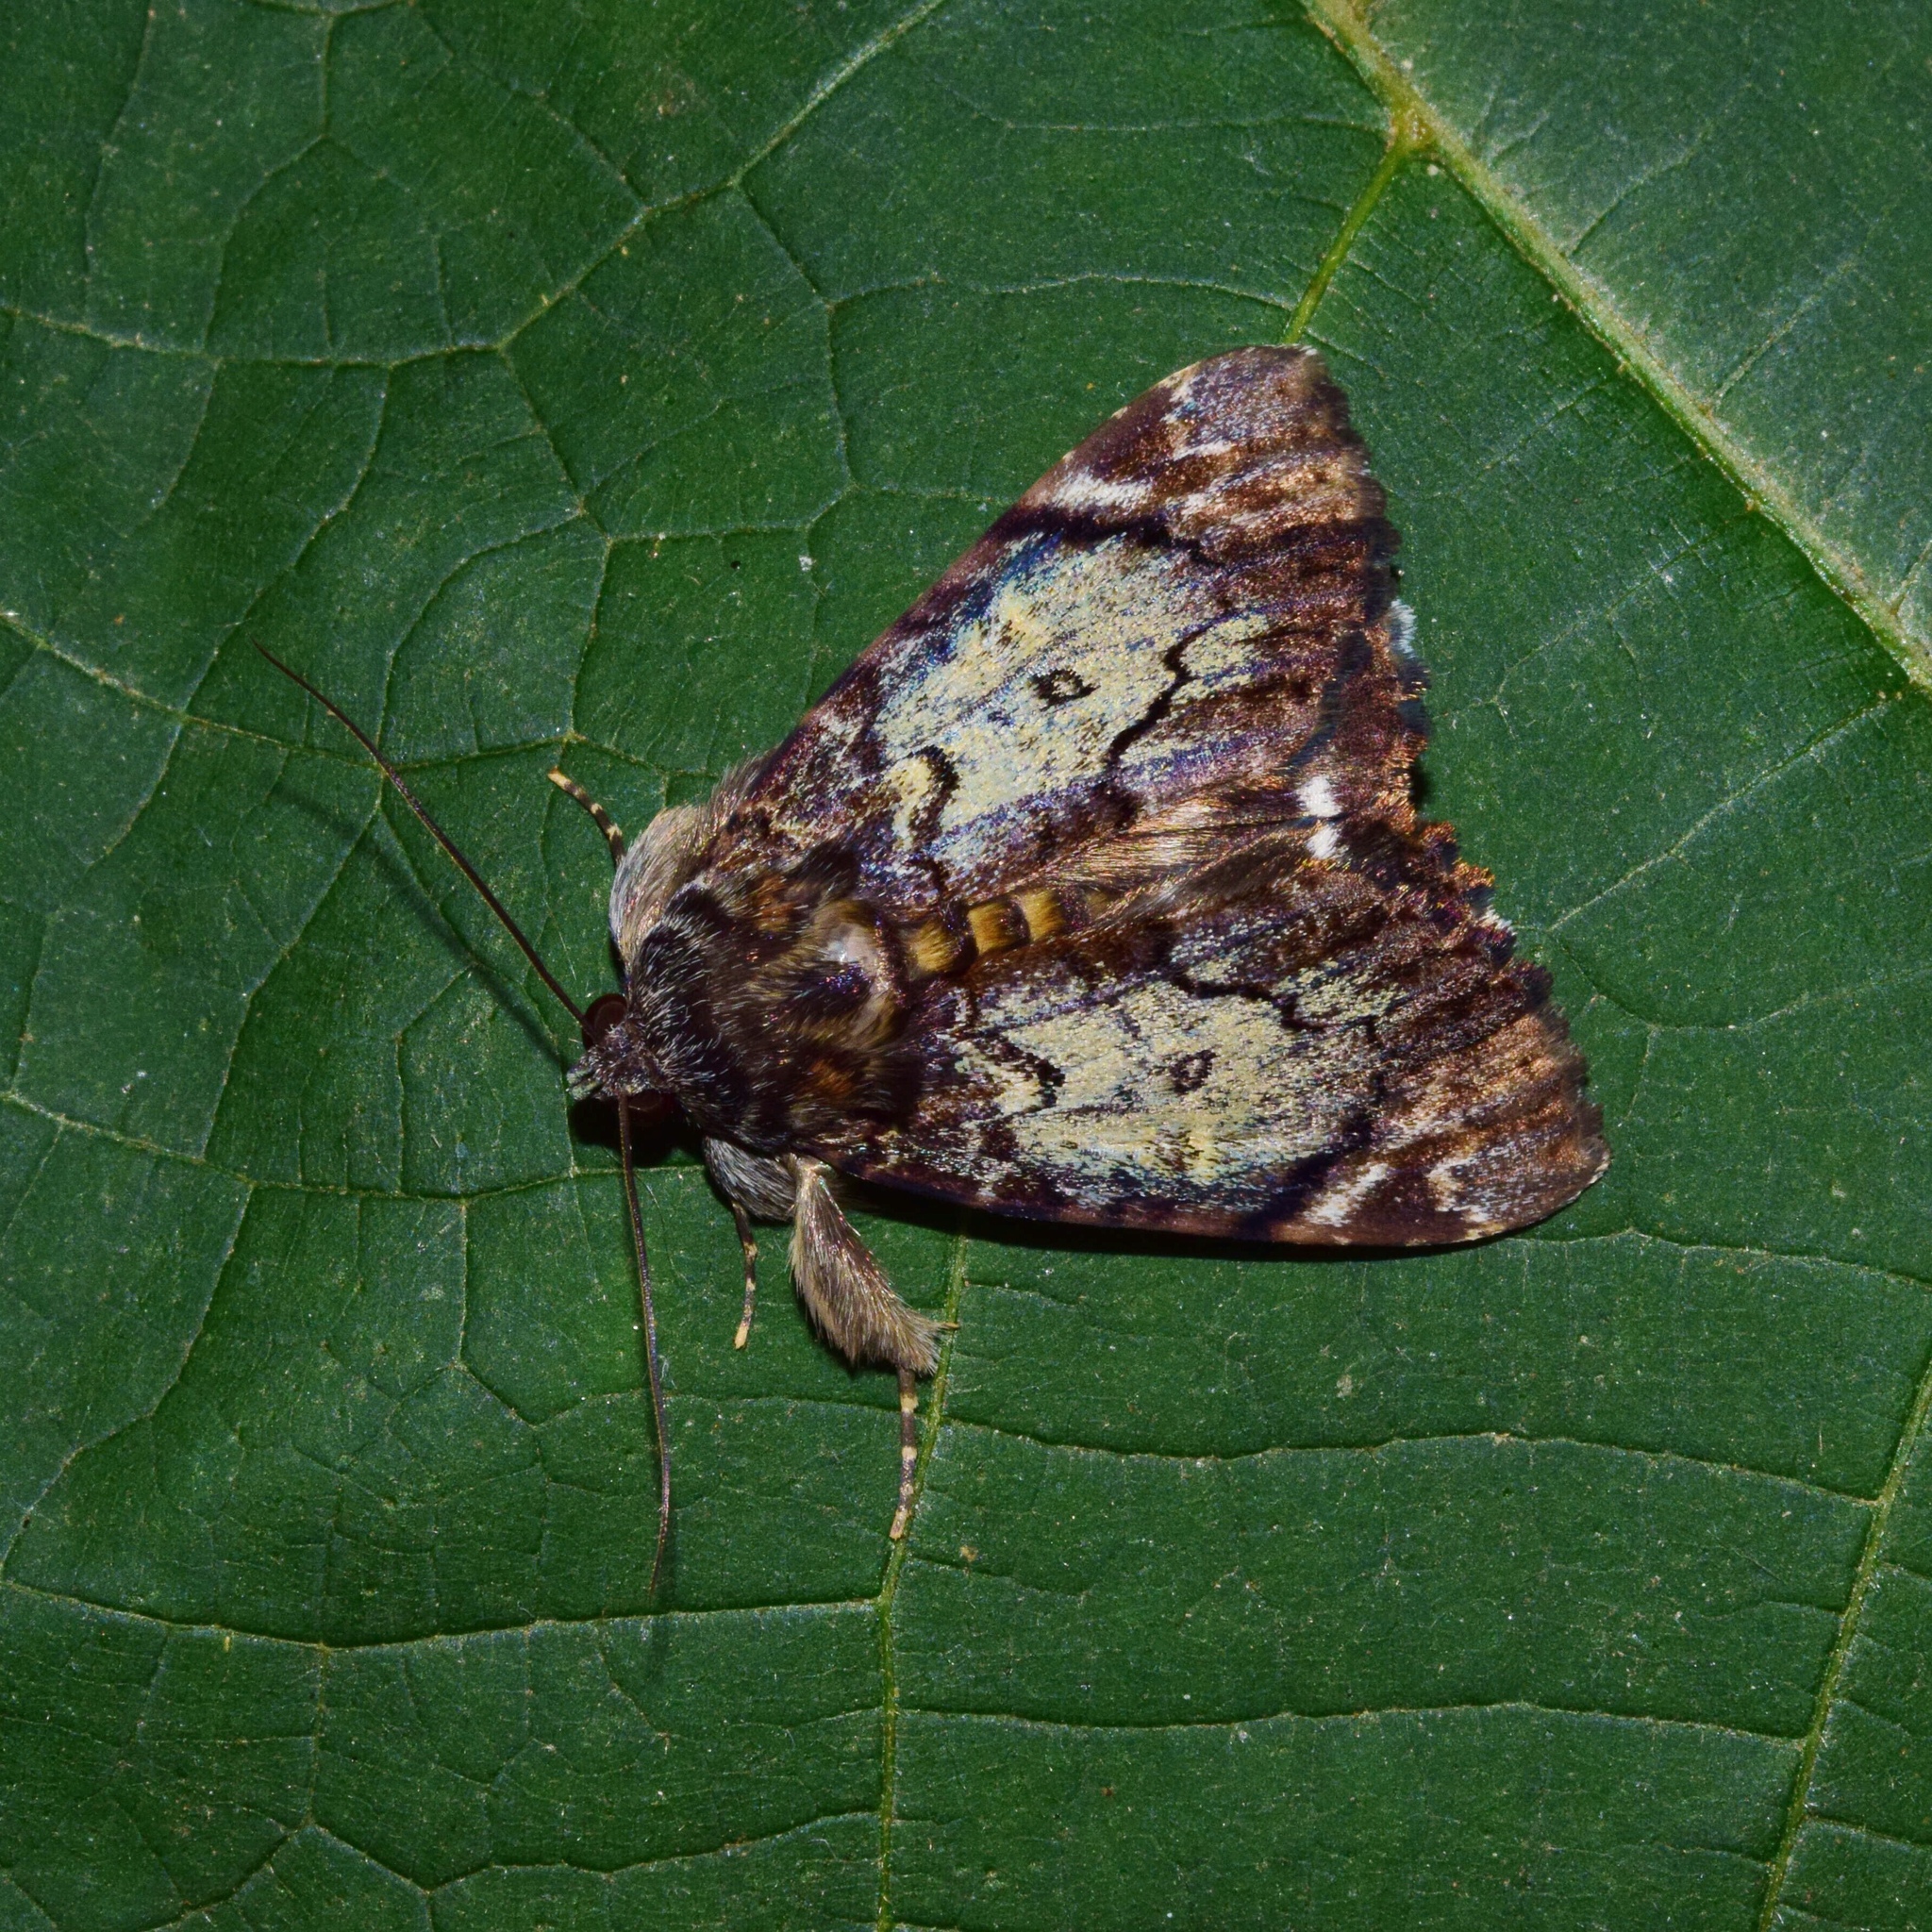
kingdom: Animalia
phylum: Arthropoda
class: Insecta
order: Lepidoptera
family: Erebidae
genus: Catephia
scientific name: Catephia amplificans
